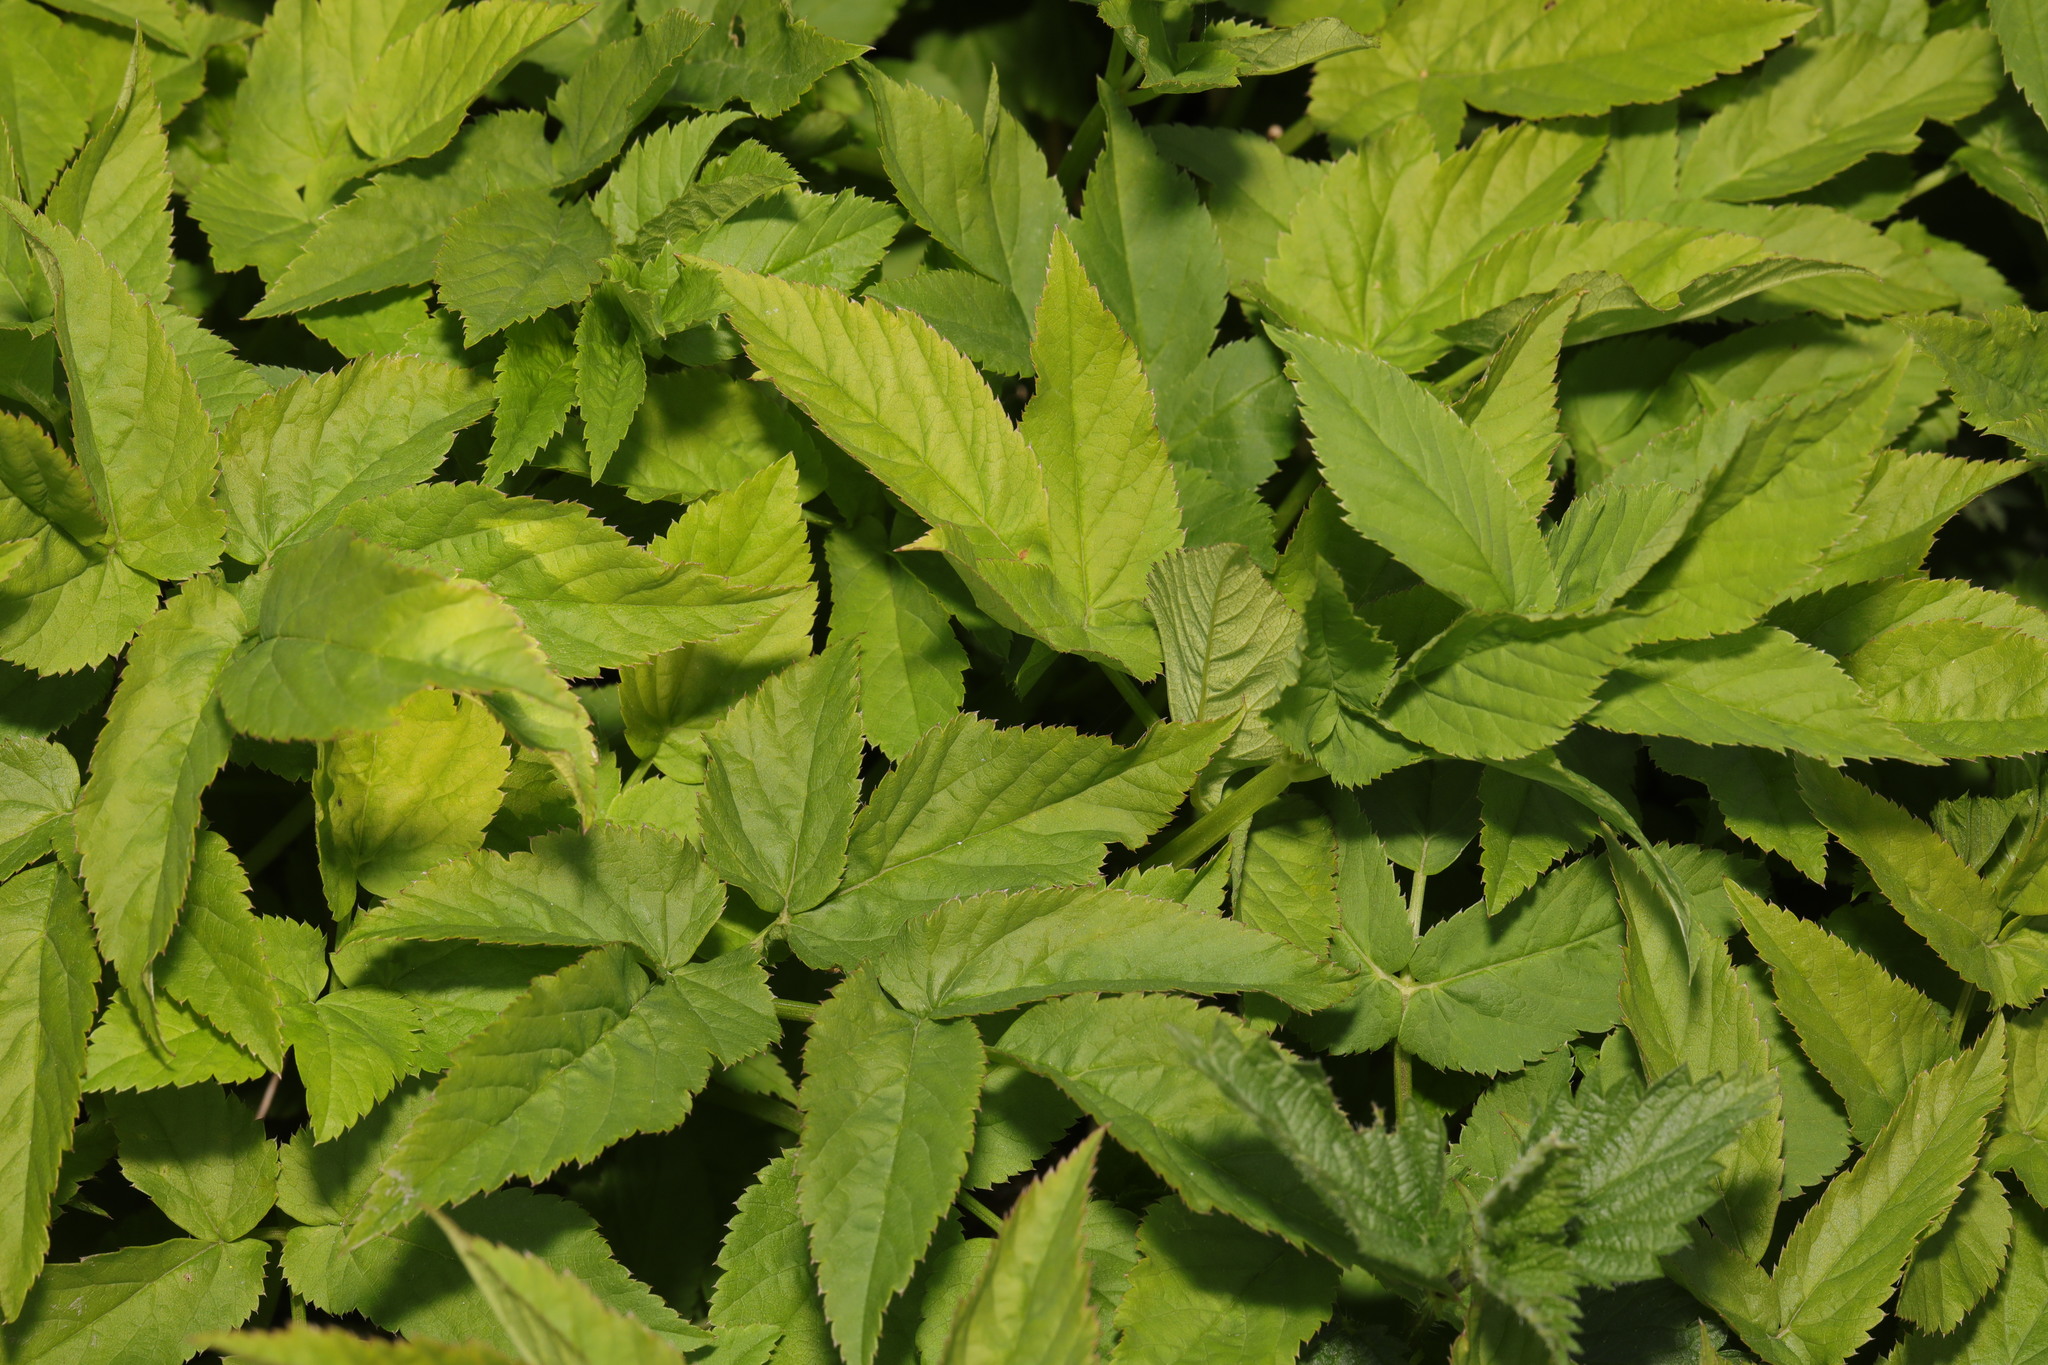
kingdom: Plantae
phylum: Tracheophyta
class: Magnoliopsida
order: Apiales
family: Apiaceae
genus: Aegopodium
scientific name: Aegopodium podagraria
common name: Ground-elder
